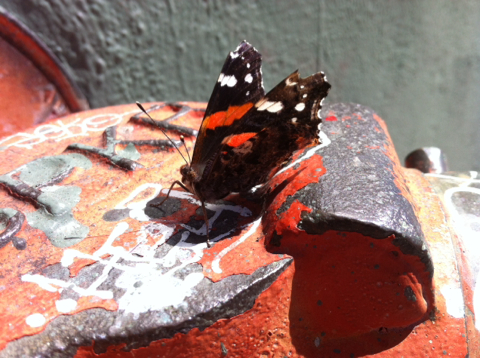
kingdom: Animalia
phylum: Arthropoda
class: Insecta
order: Lepidoptera
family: Nymphalidae
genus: Vanessa
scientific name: Vanessa atalanta
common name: Red admiral
